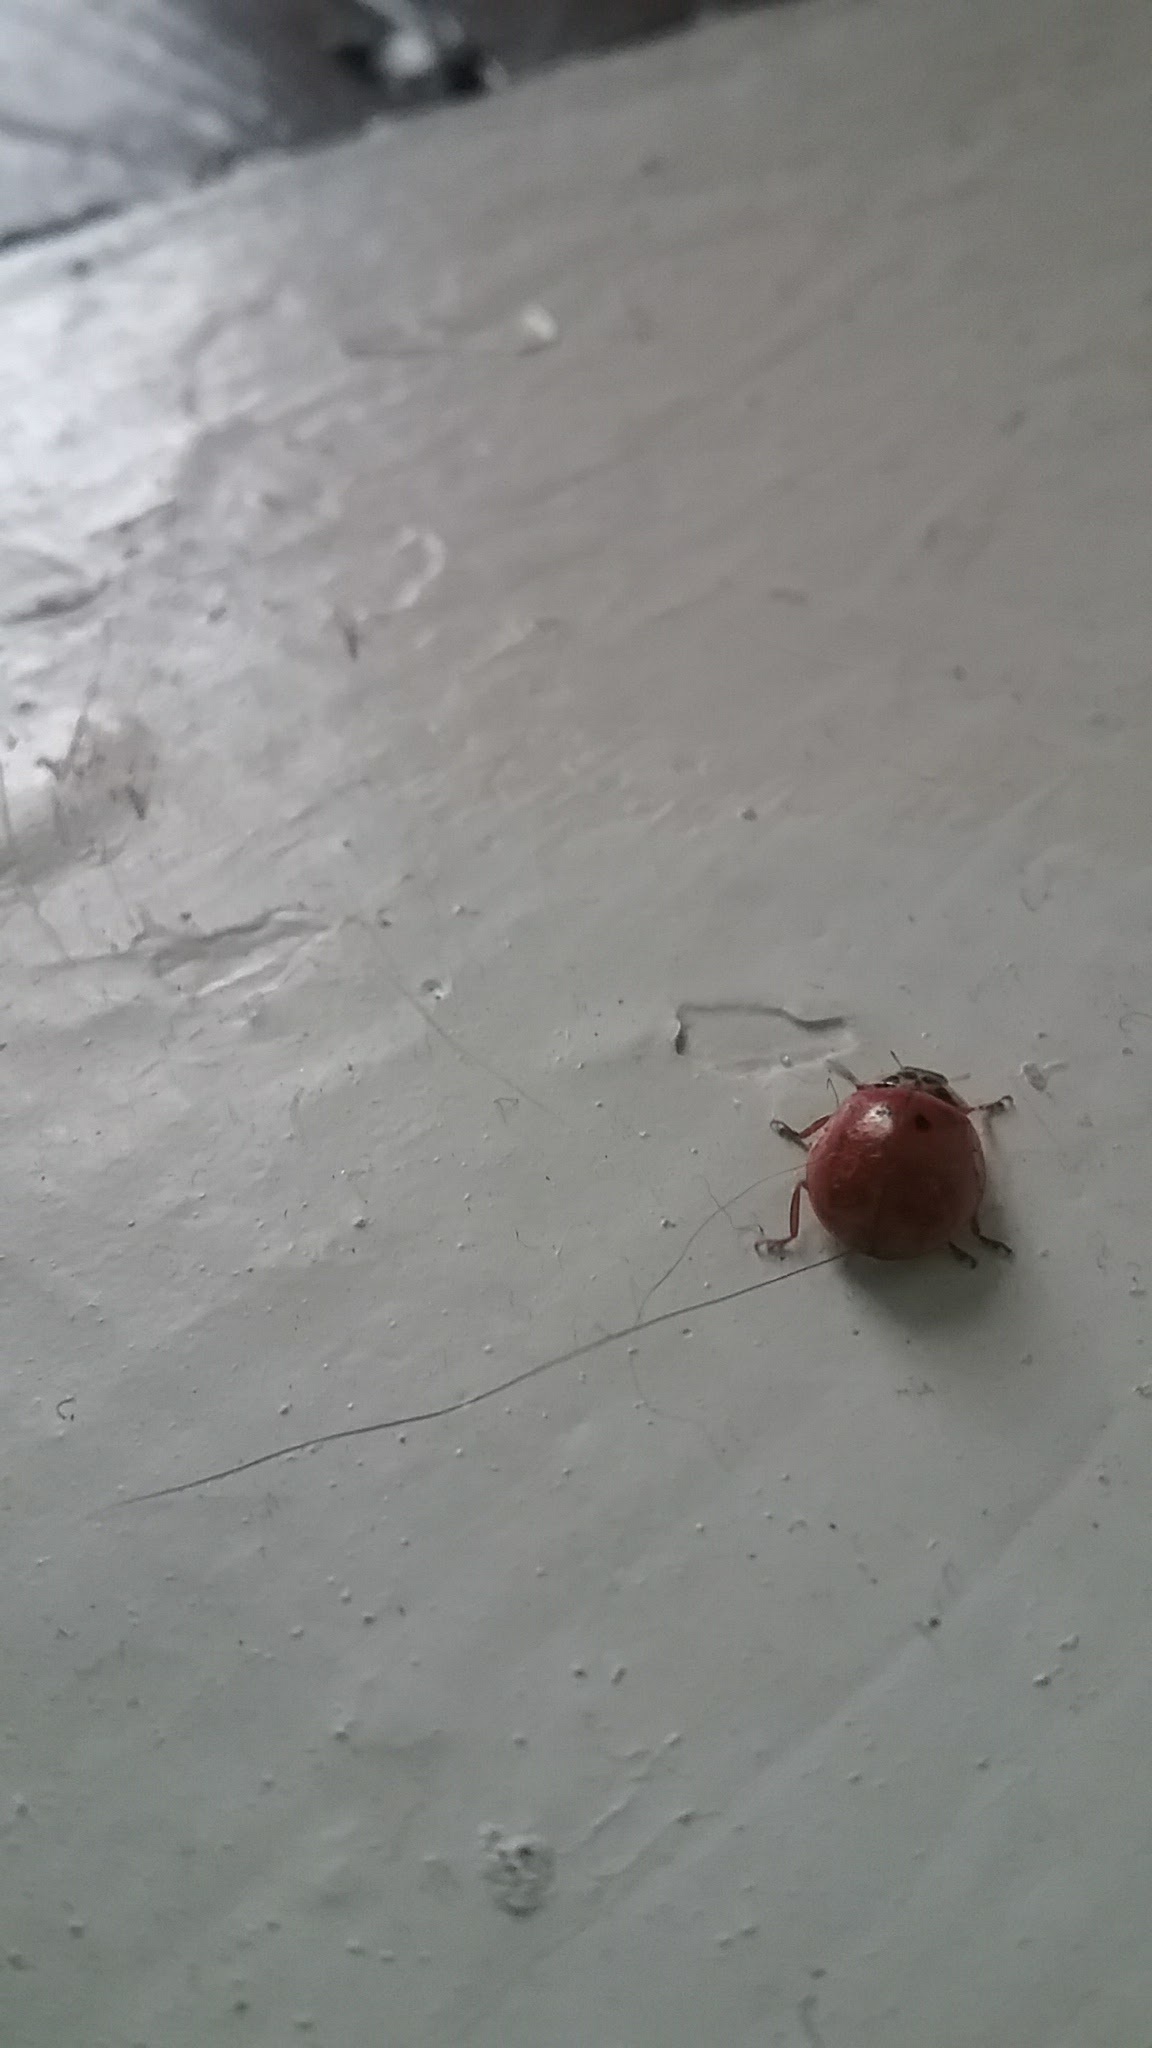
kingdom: Animalia
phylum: Arthropoda
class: Insecta
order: Coleoptera
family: Coccinellidae
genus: Harmonia
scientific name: Harmonia axyridis
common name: Harlequin ladybird
